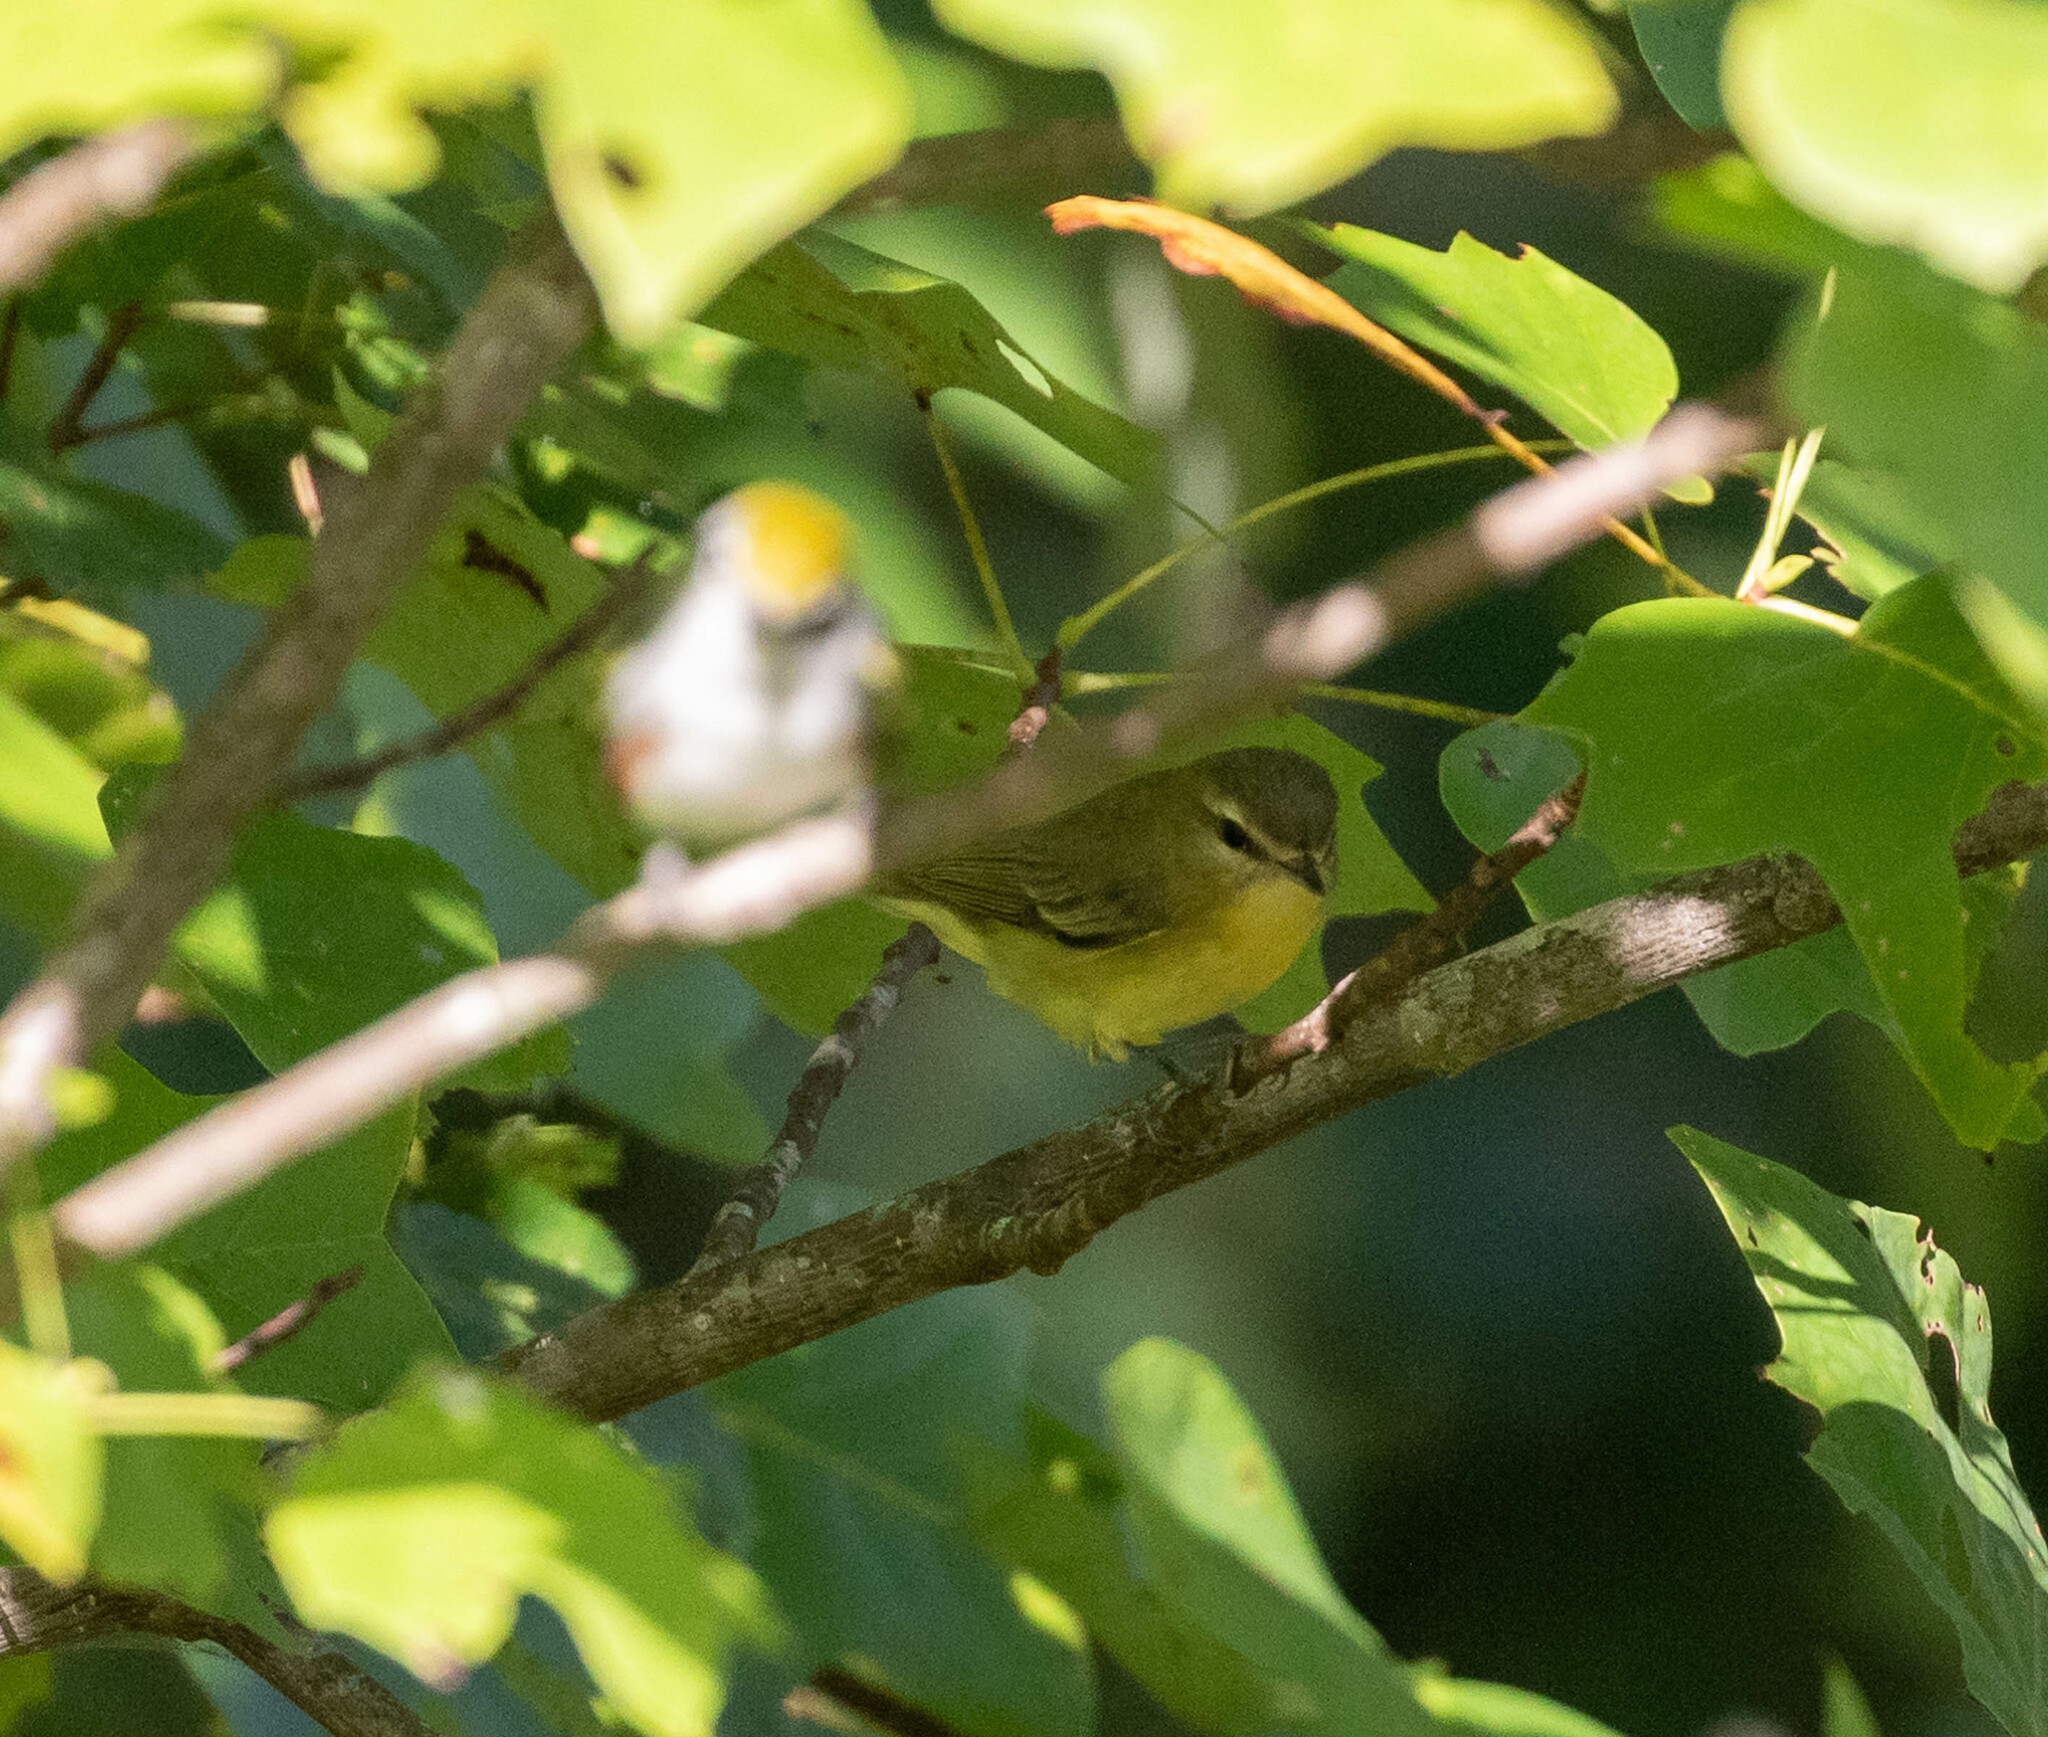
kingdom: Animalia
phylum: Chordata
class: Aves
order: Passeriformes
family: Vireonidae
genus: Vireo
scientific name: Vireo philadelphicus
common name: Philadelphia vireo
